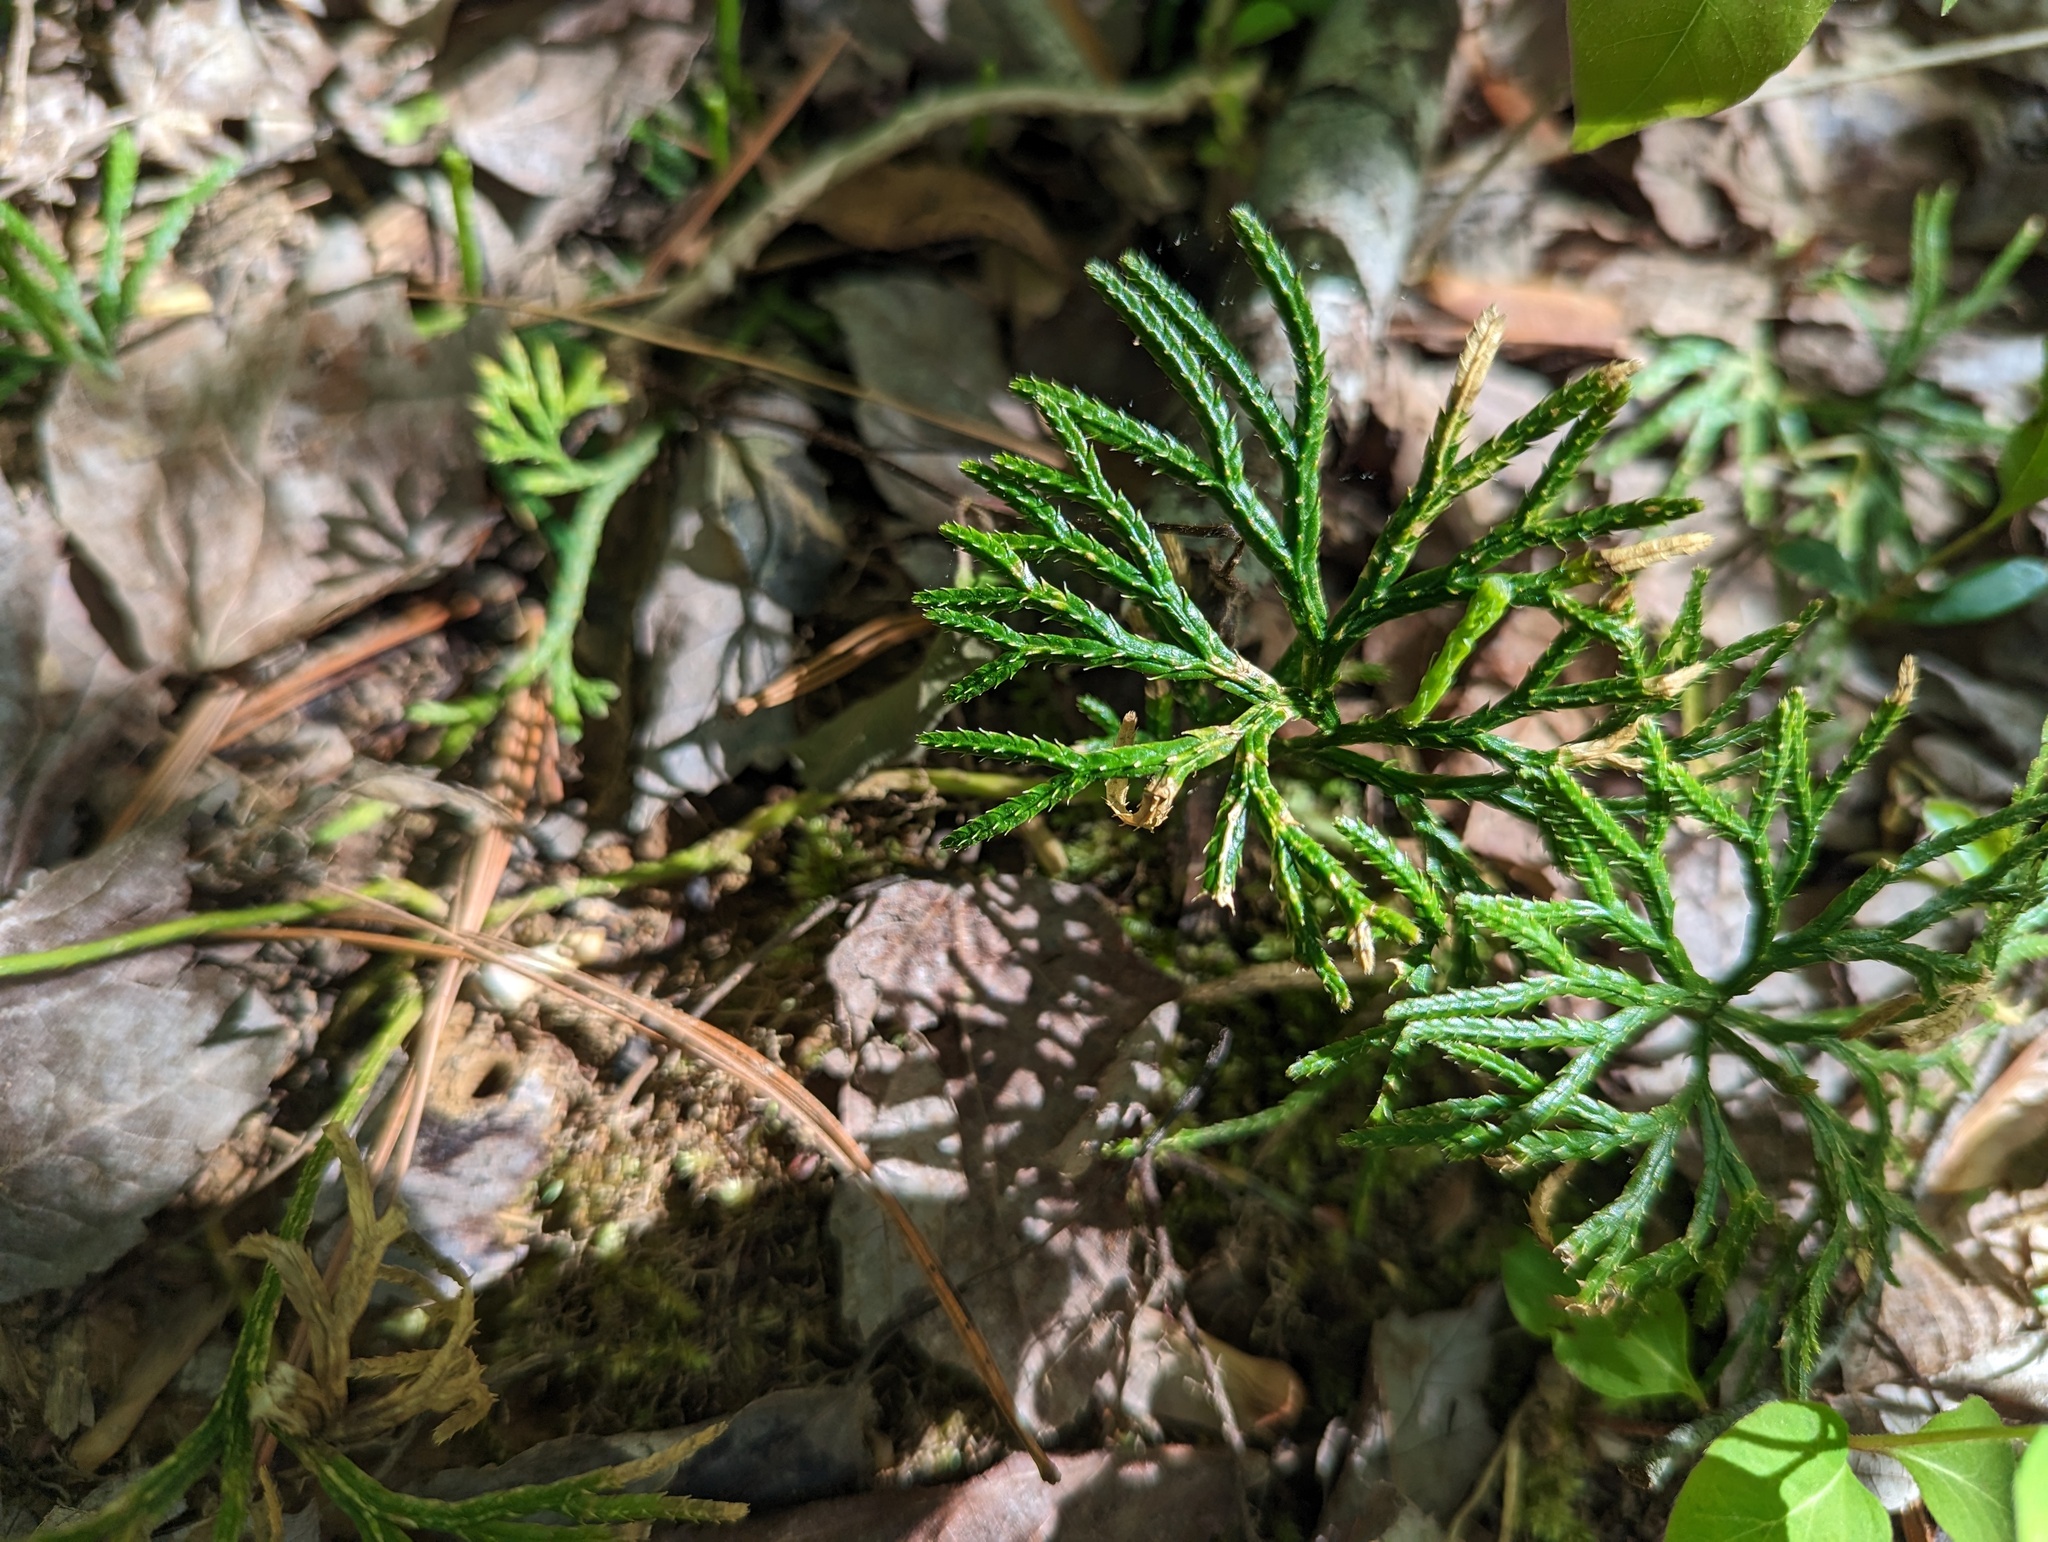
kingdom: Plantae
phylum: Tracheophyta
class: Lycopodiopsida
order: Lycopodiales
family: Lycopodiaceae
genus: Diphasiastrum
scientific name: Diphasiastrum digitatum
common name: Southern running-pine
